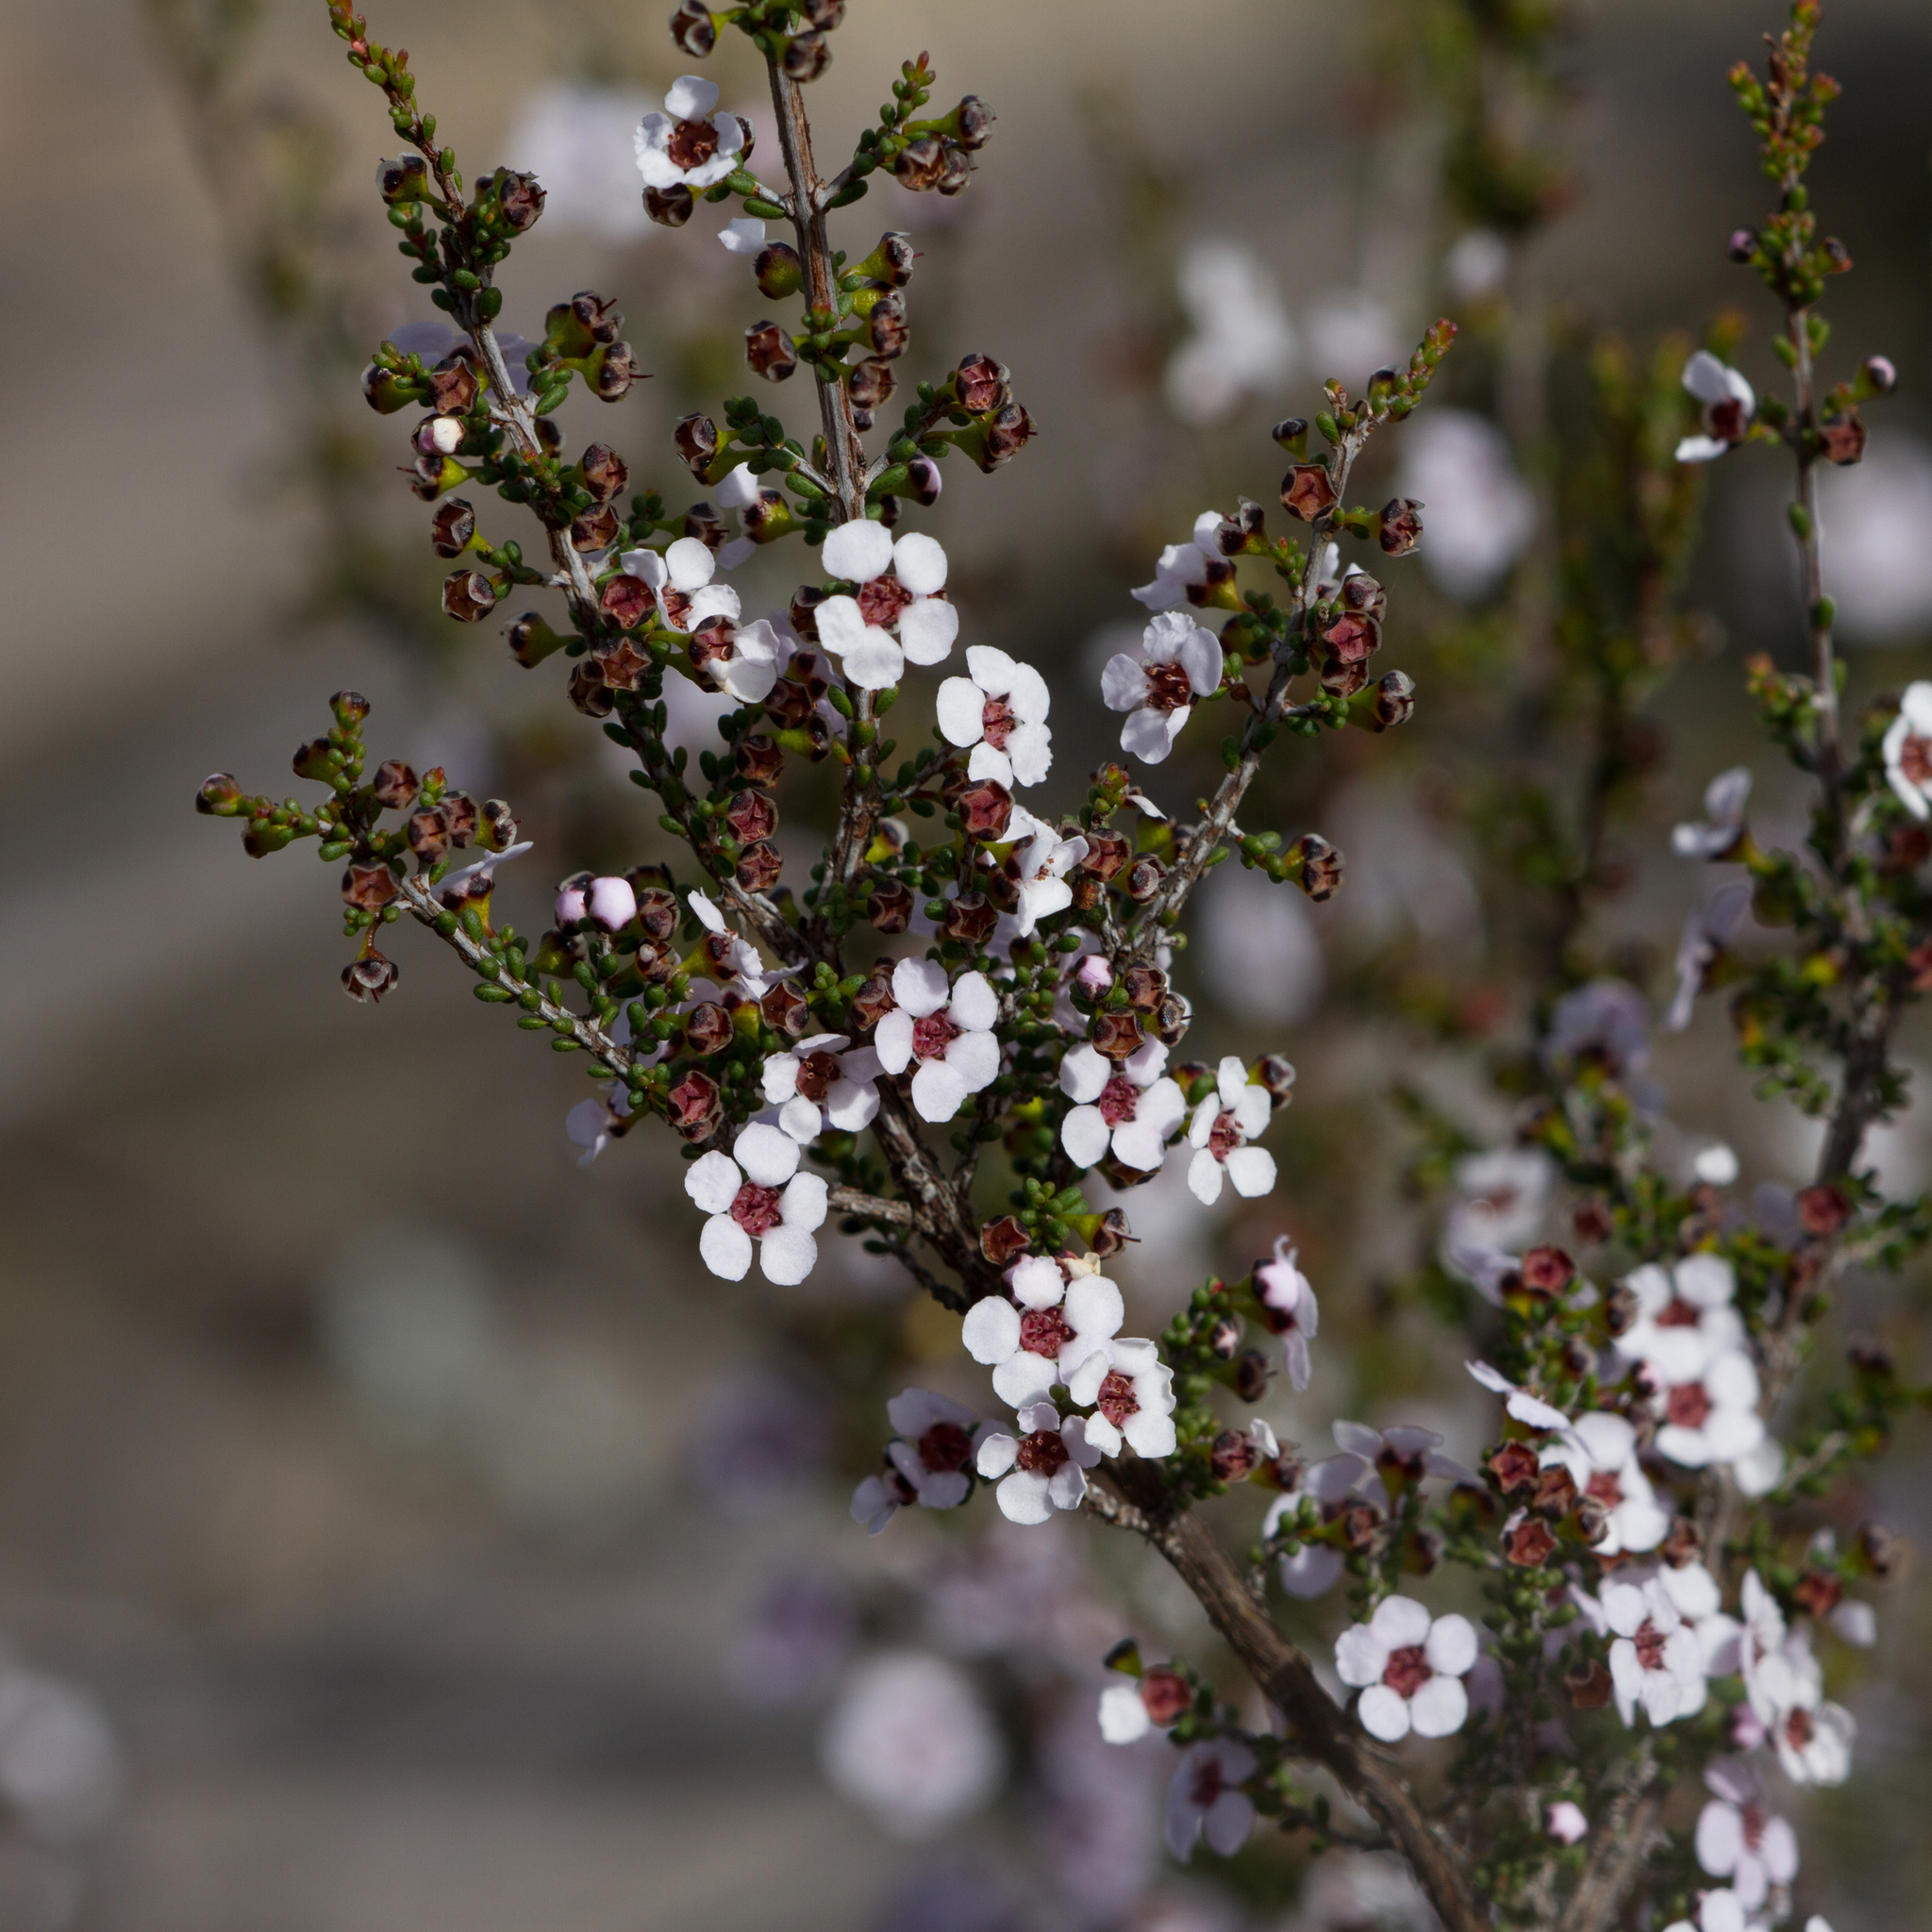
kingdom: Plantae
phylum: Tracheophyta
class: Magnoliopsida
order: Myrtales
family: Myrtaceae
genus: Rinzia
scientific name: Rinzia orientalis
